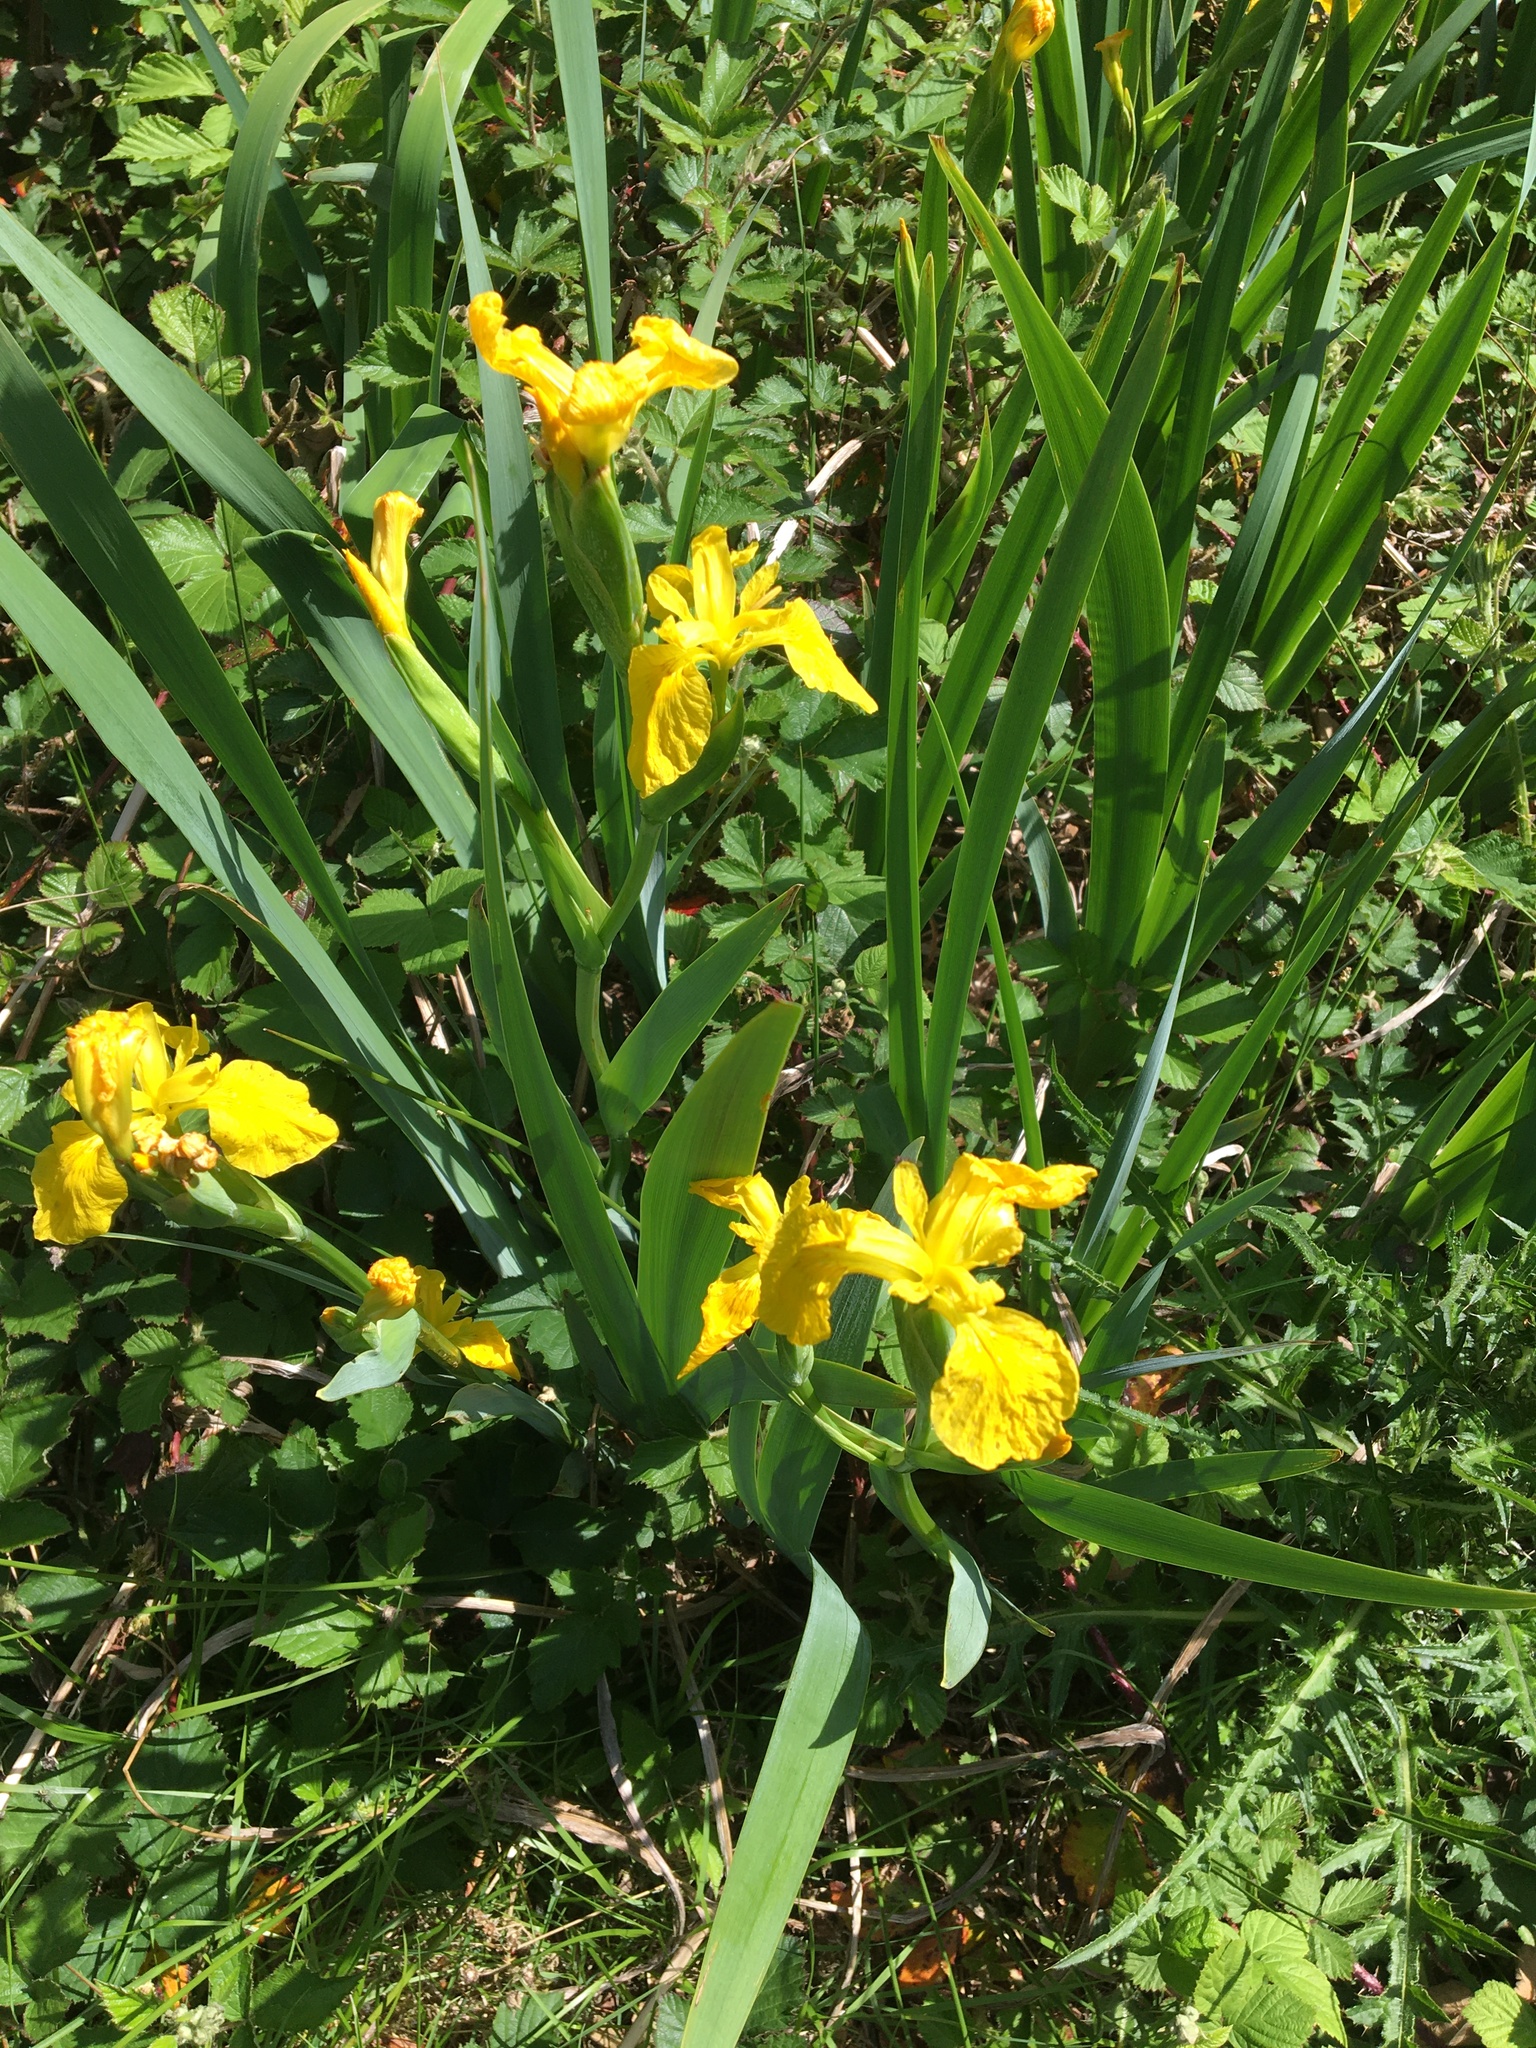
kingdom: Plantae
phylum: Tracheophyta
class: Liliopsida
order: Asparagales
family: Iridaceae
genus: Iris
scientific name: Iris pseudacorus
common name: Yellow flag
